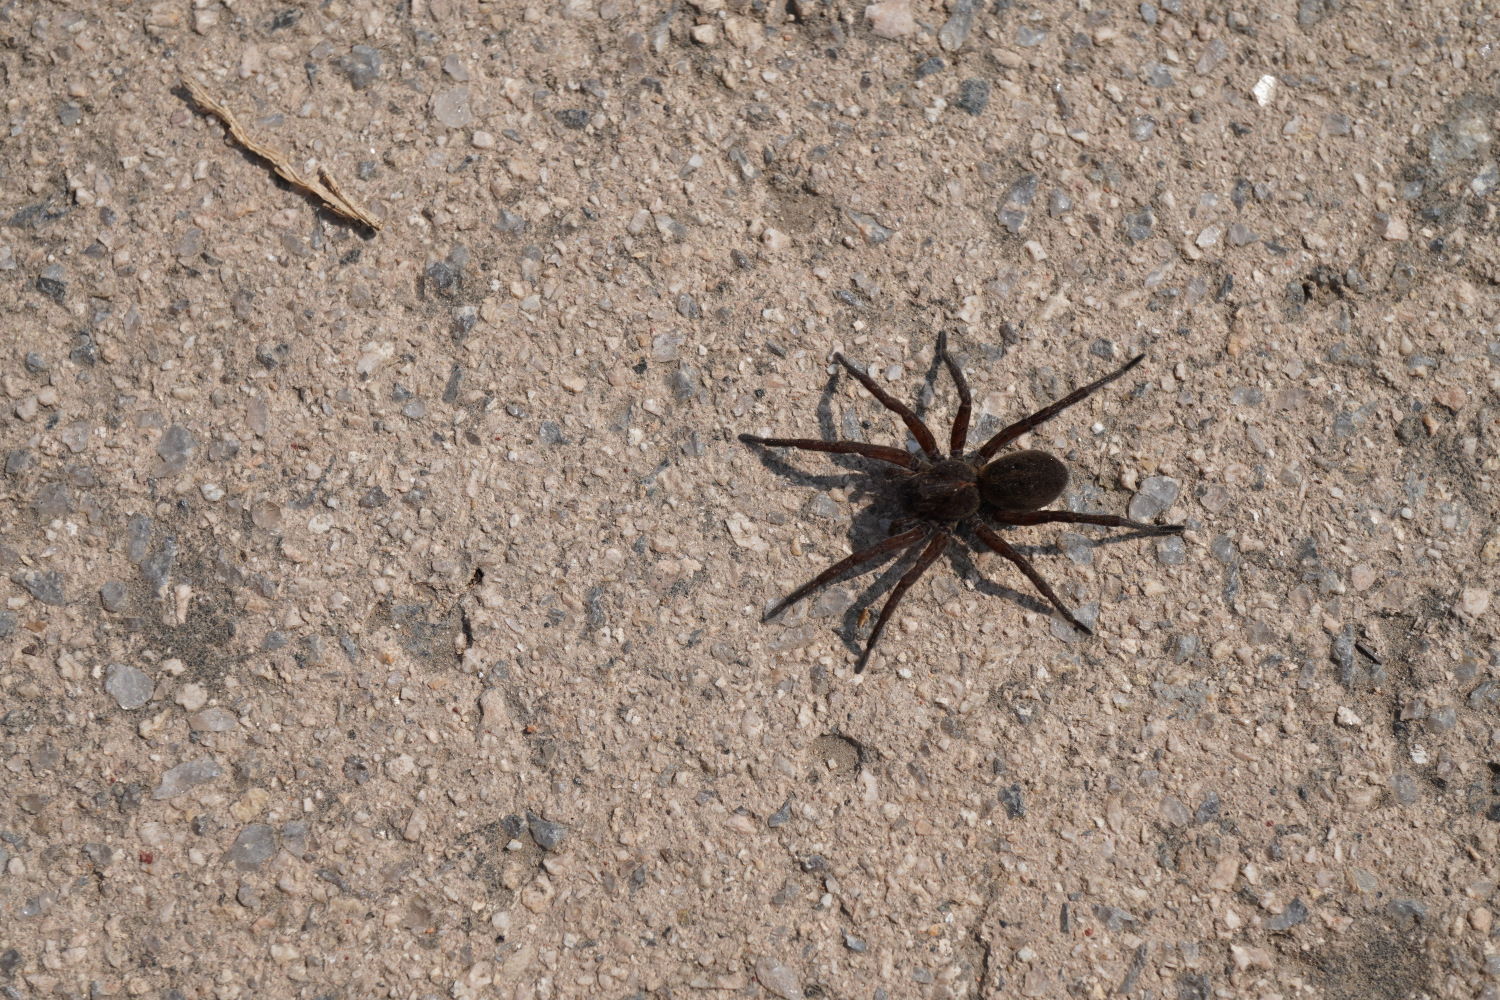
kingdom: Animalia
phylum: Arthropoda
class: Arachnida
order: Araneae
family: Lycosidae
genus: Arctosa
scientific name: Arctosa ebicha
